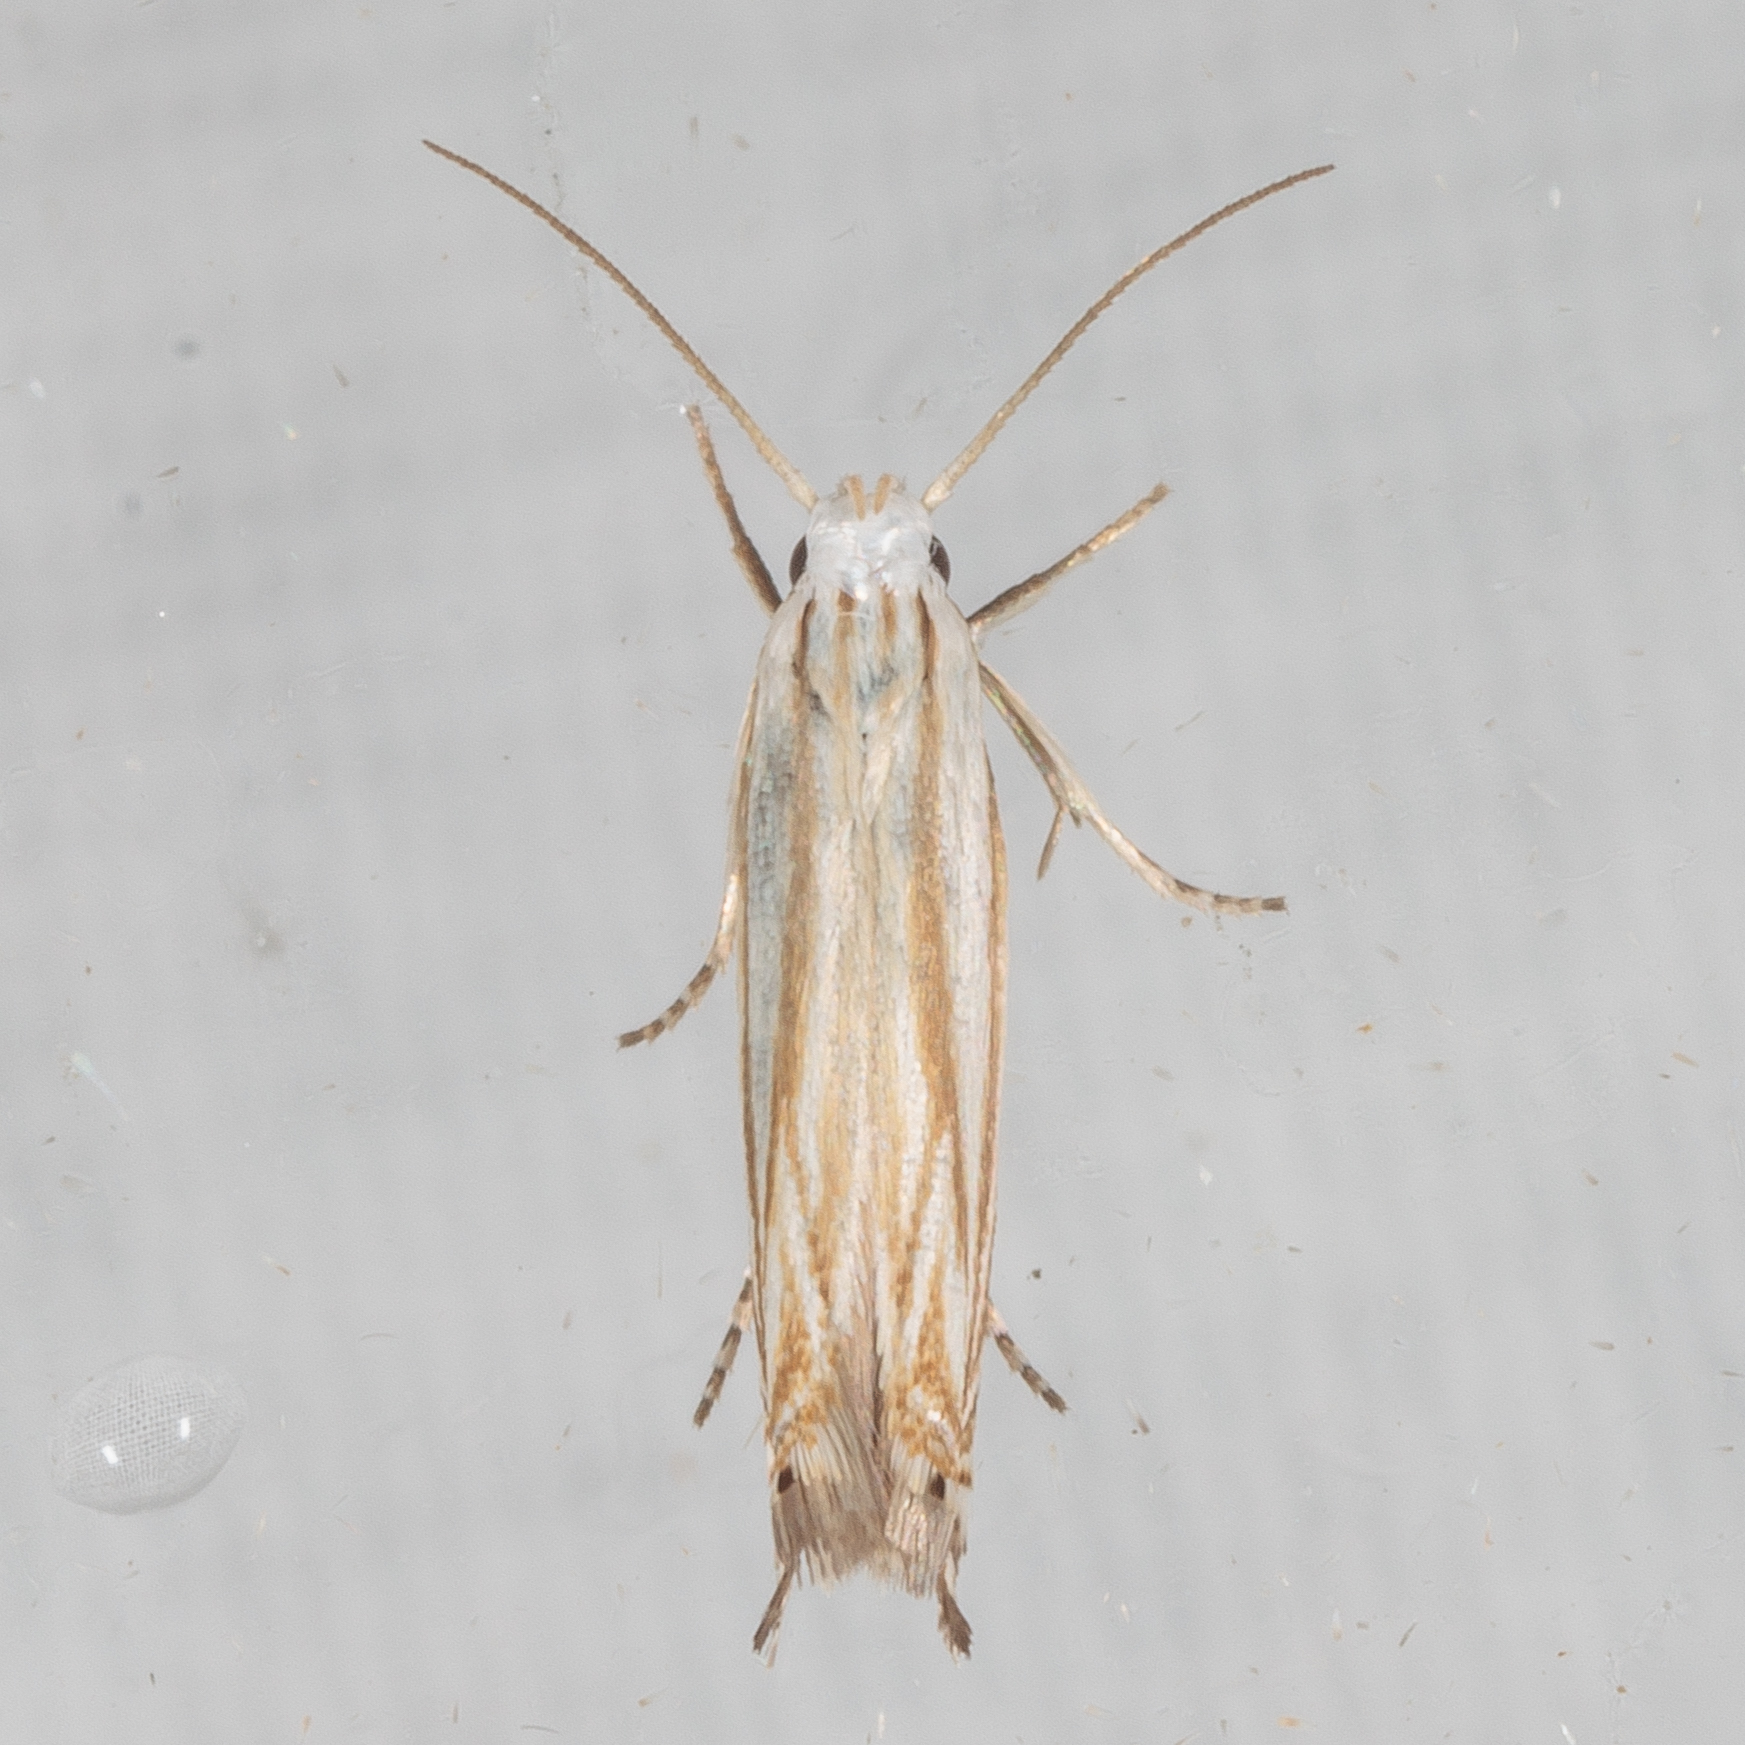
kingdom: Animalia
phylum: Arthropoda
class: Insecta
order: Lepidoptera
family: Gelechiidae
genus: Polyhymno
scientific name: Polyhymno luteostrigella
